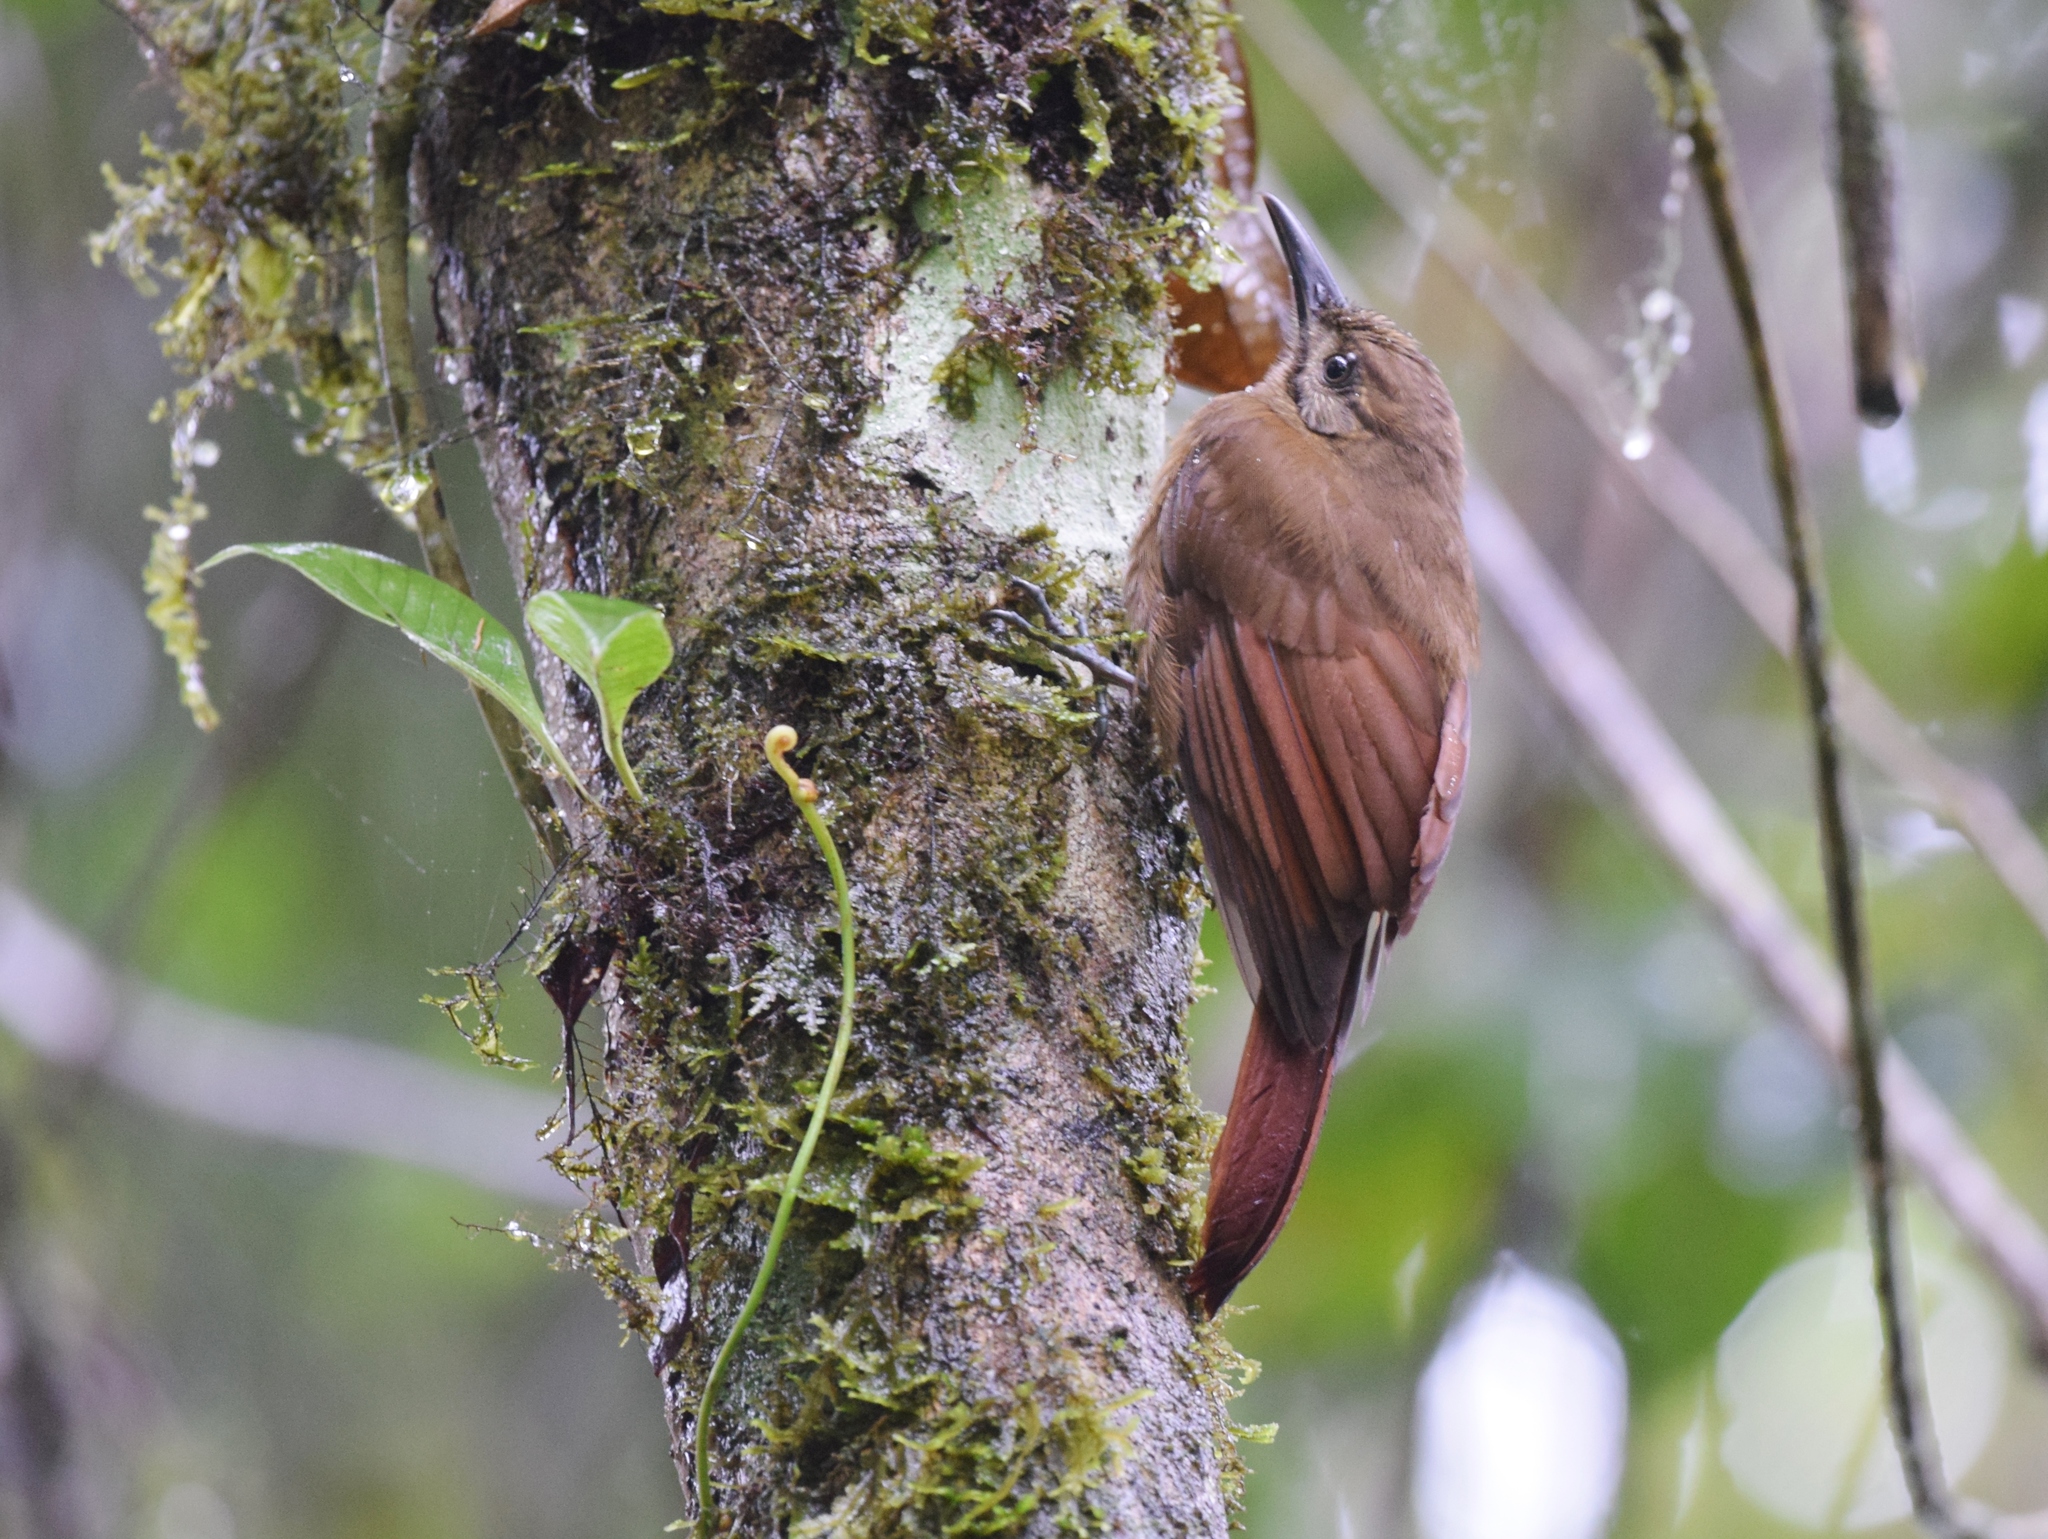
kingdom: Animalia
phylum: Chordata
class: Aves
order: Passeriformes
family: Furnariidae
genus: Dendrocincla
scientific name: Dendrocincla fuliginosa
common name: Plain-brown woodcreeper
